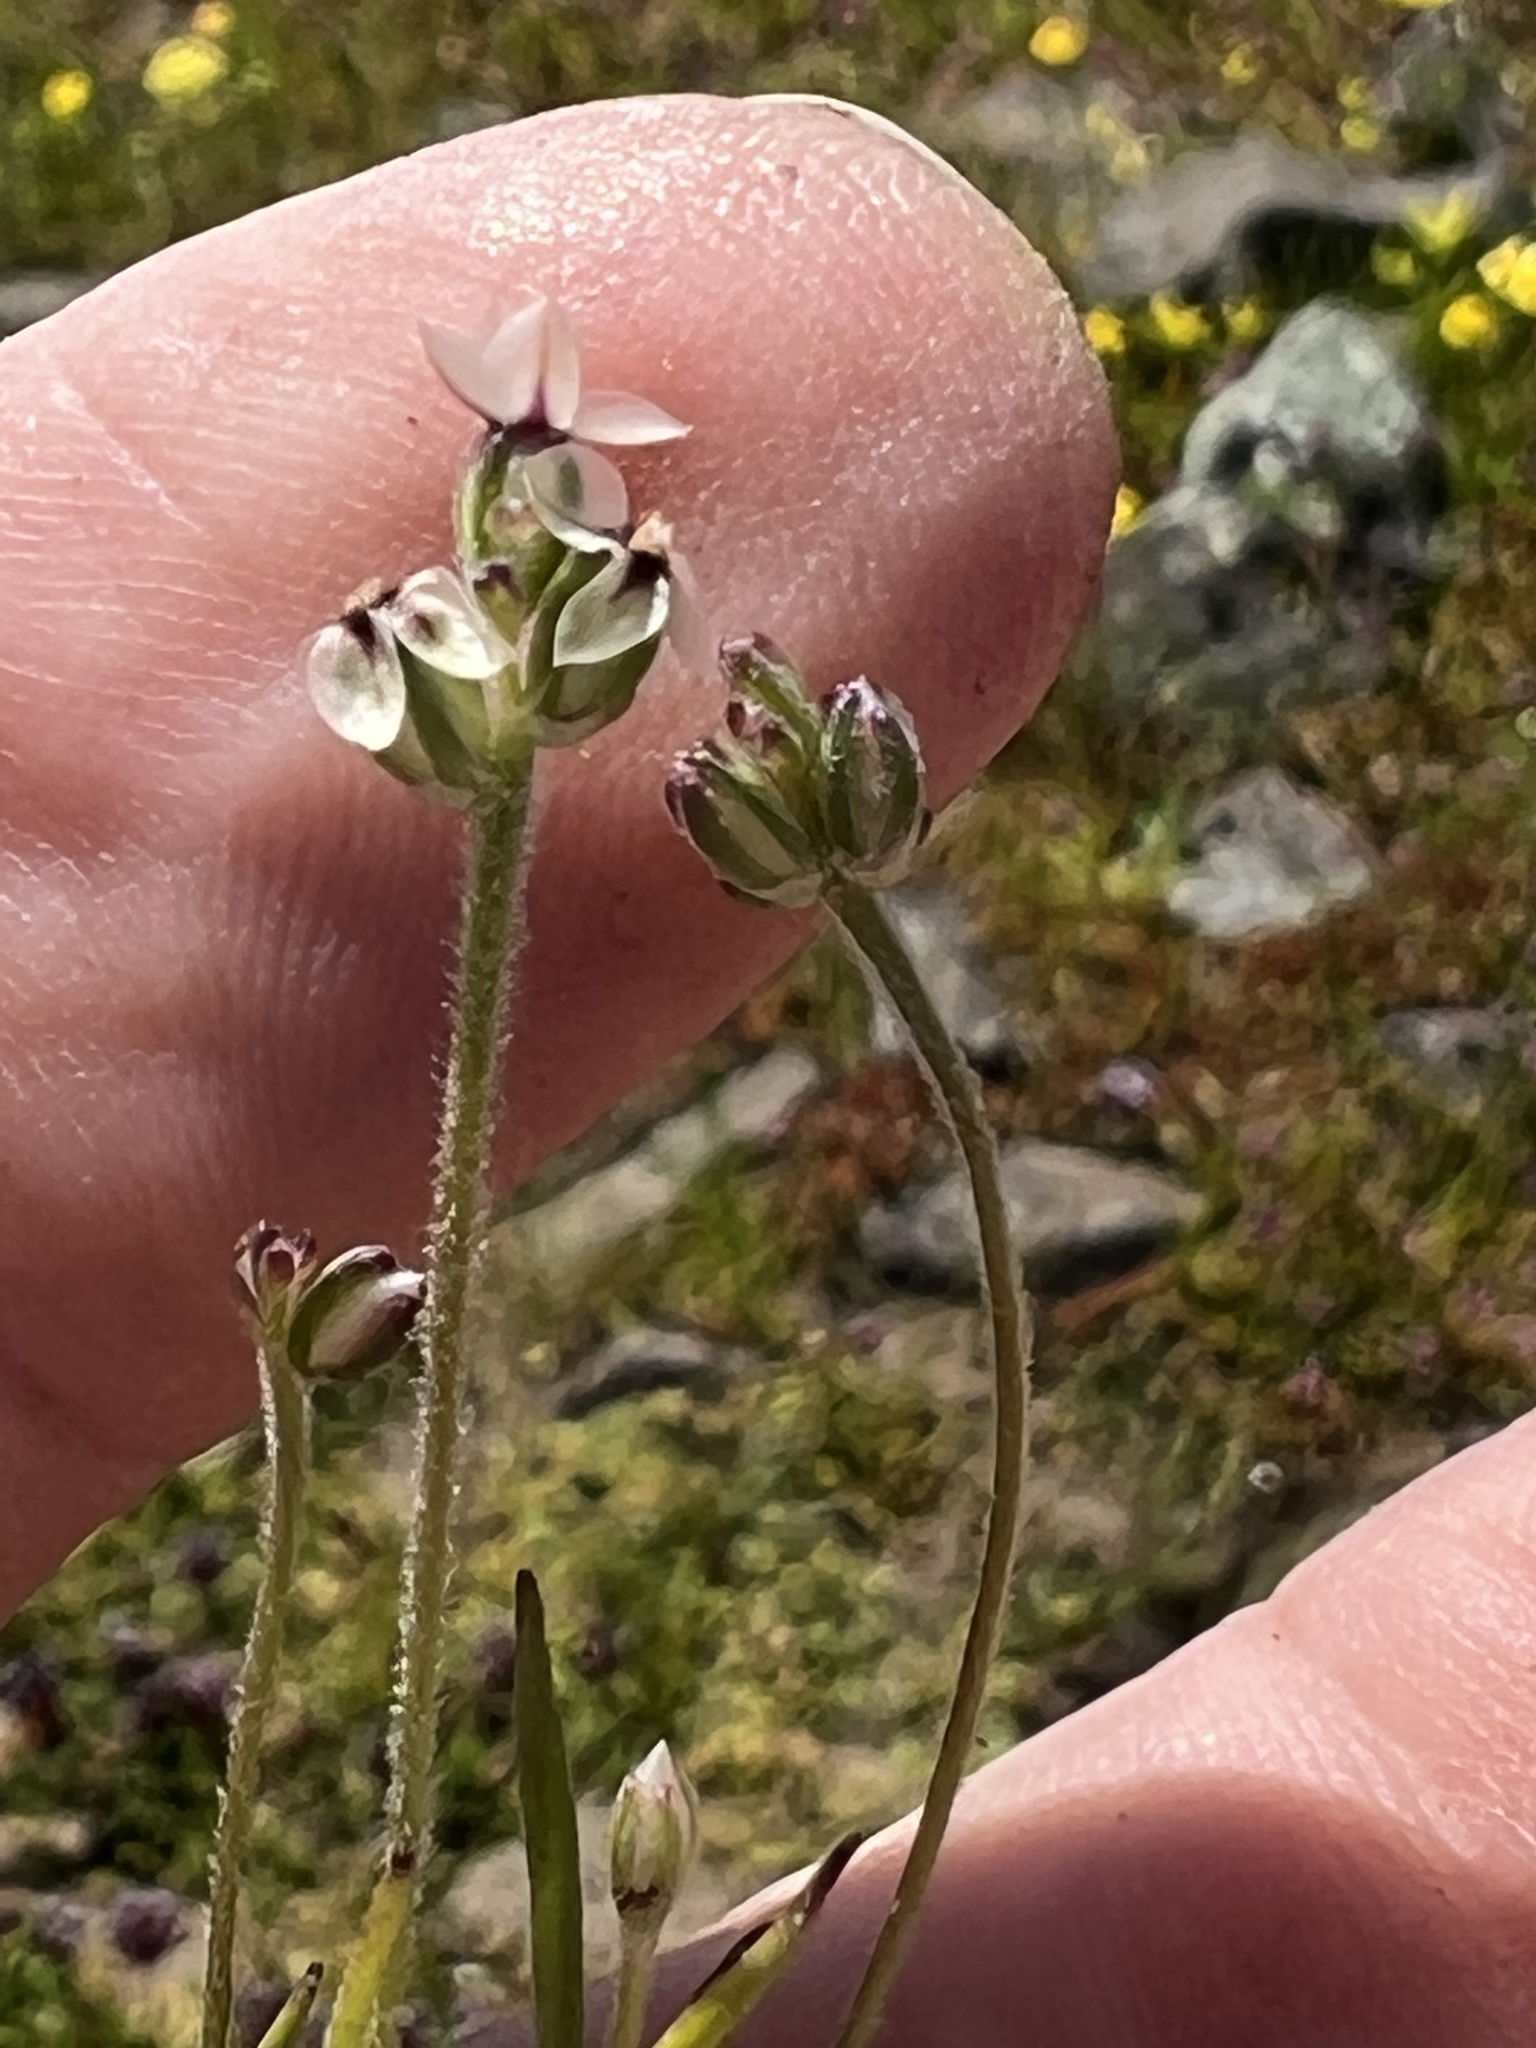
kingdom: Plantae
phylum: Tracheophyta
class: Magnoliopsida
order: Lamiales
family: Plantaginaceae
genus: Plantago
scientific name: Plantago erecta
